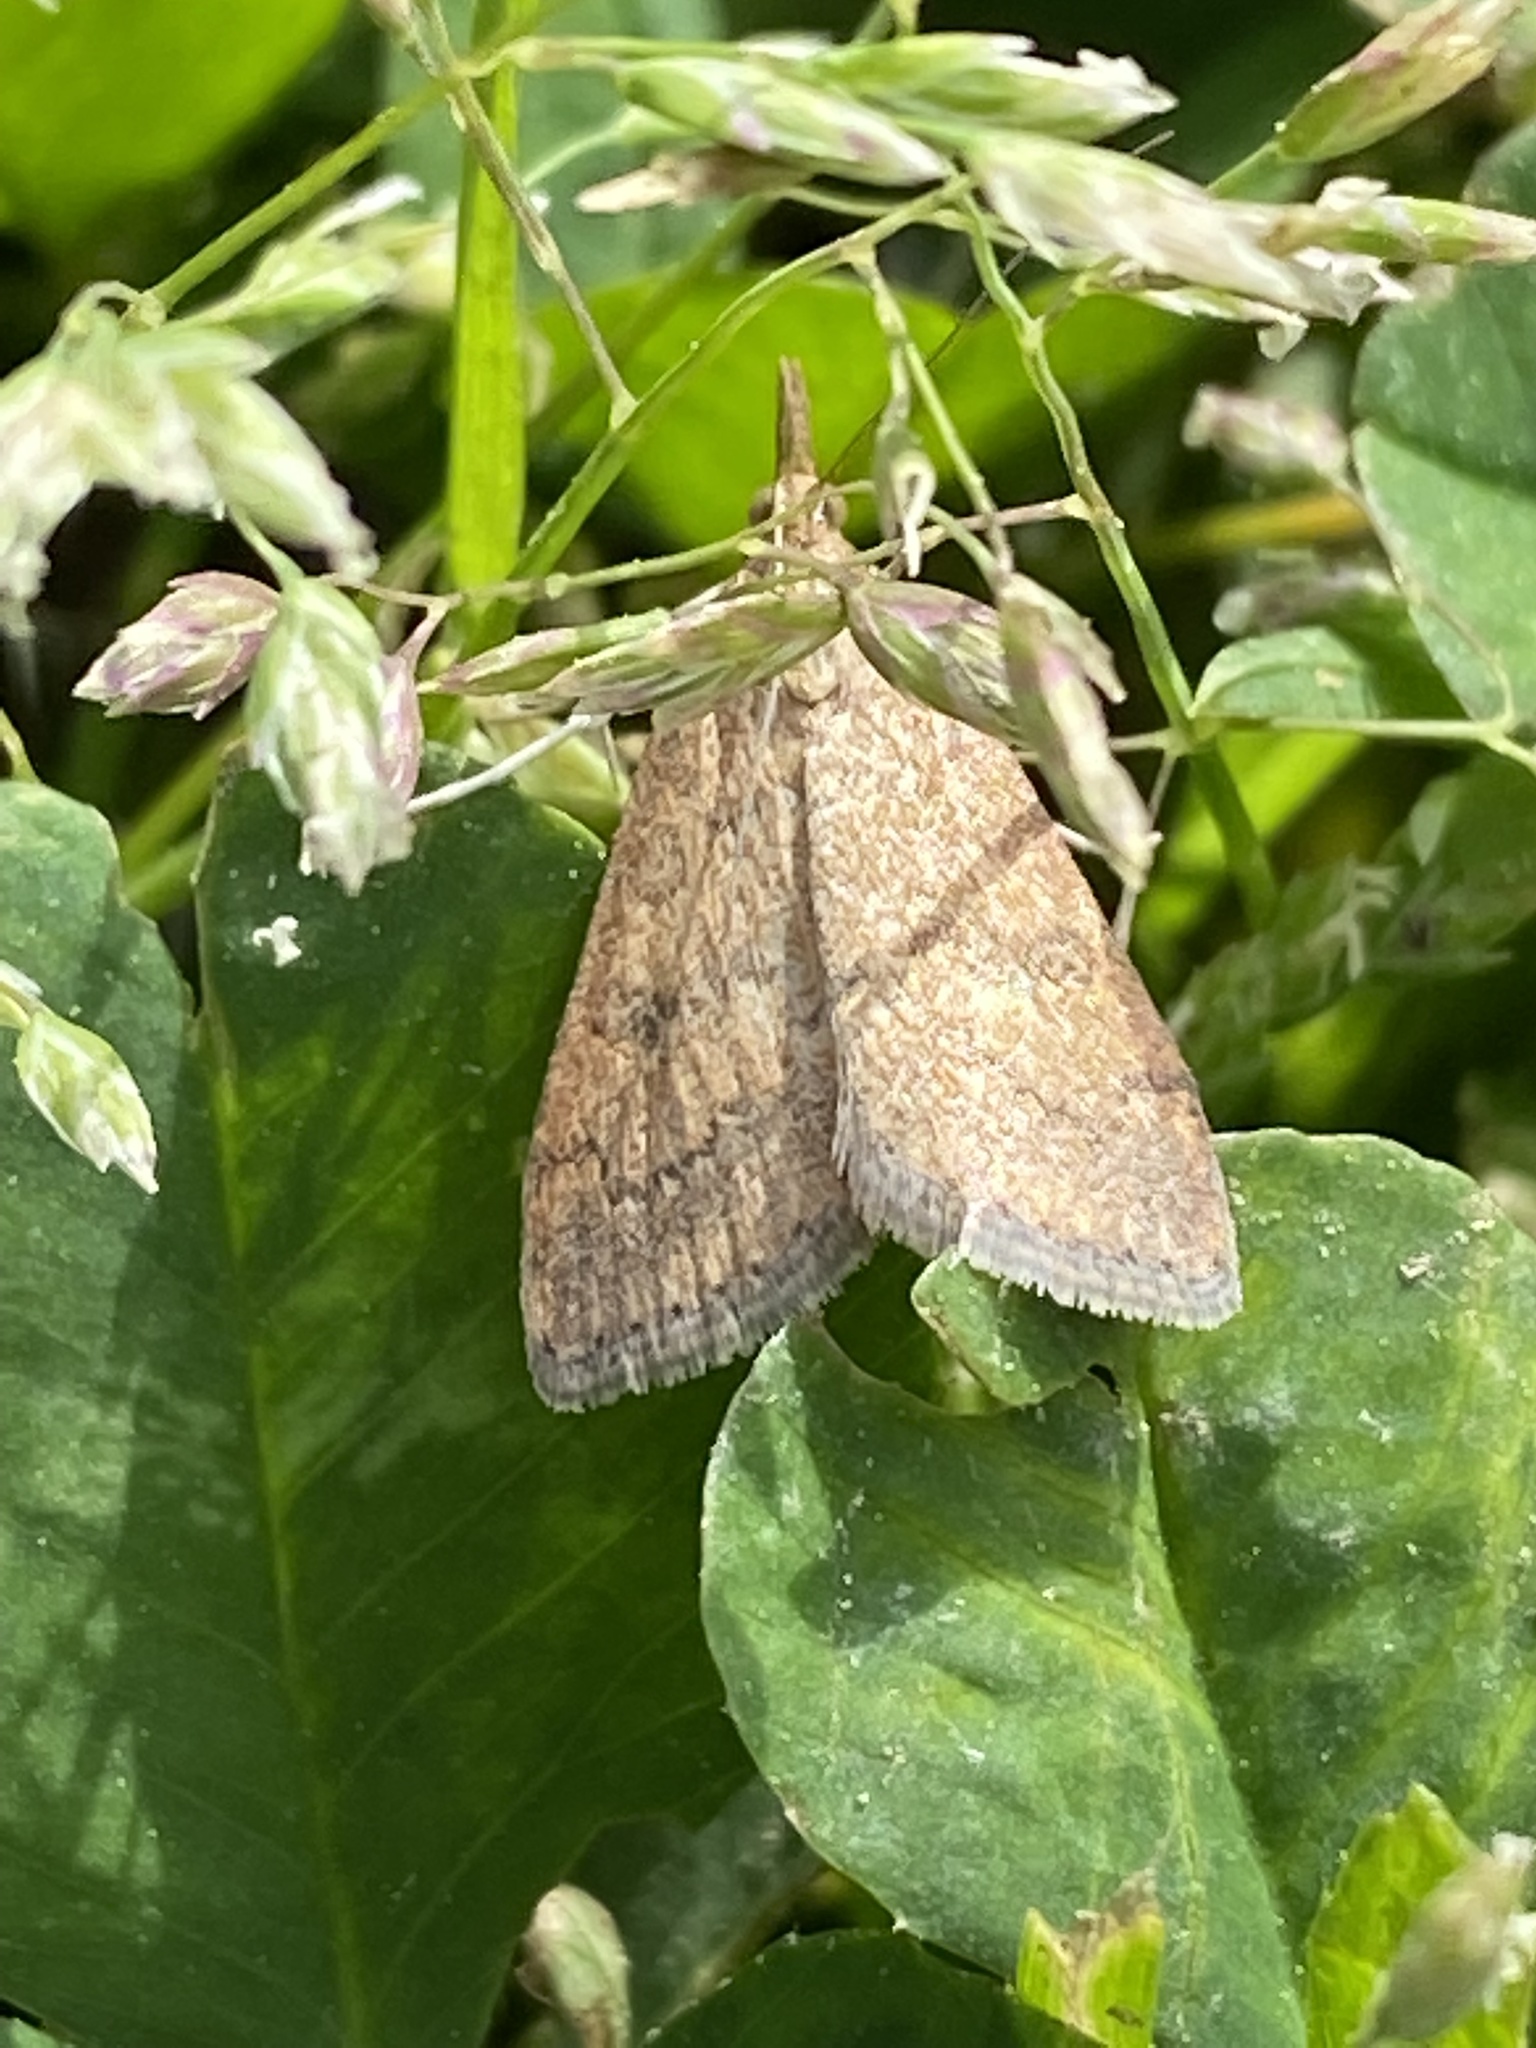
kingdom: Animalia
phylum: Arthropoda
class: Insecta
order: Lepidoptera
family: Crambidae
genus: Udea
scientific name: Udea rubigalis
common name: Celery leaftier moth
